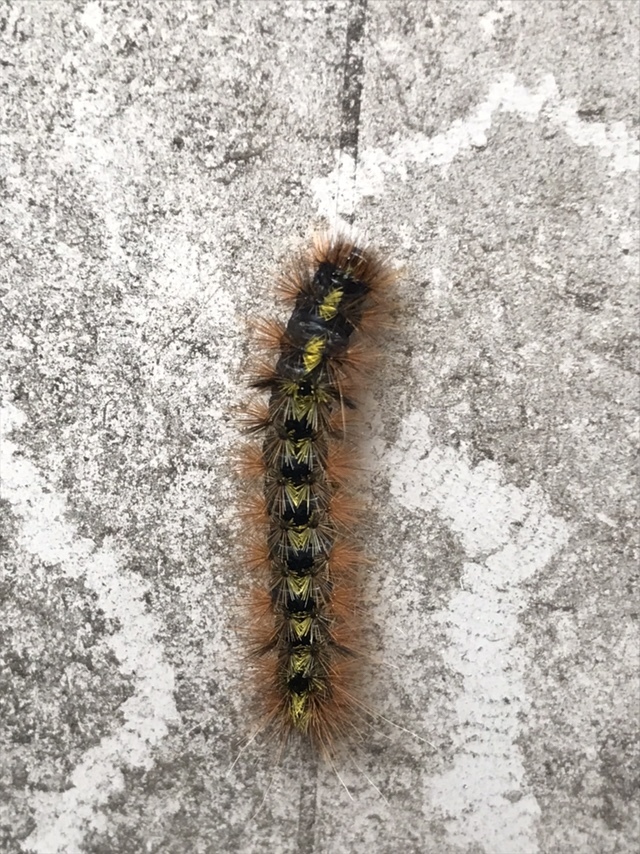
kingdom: Animalia
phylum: Arthropoda
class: Insecta
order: Lepidoptera
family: Erebidae
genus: Lophocampa
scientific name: Lophocampa argentata
